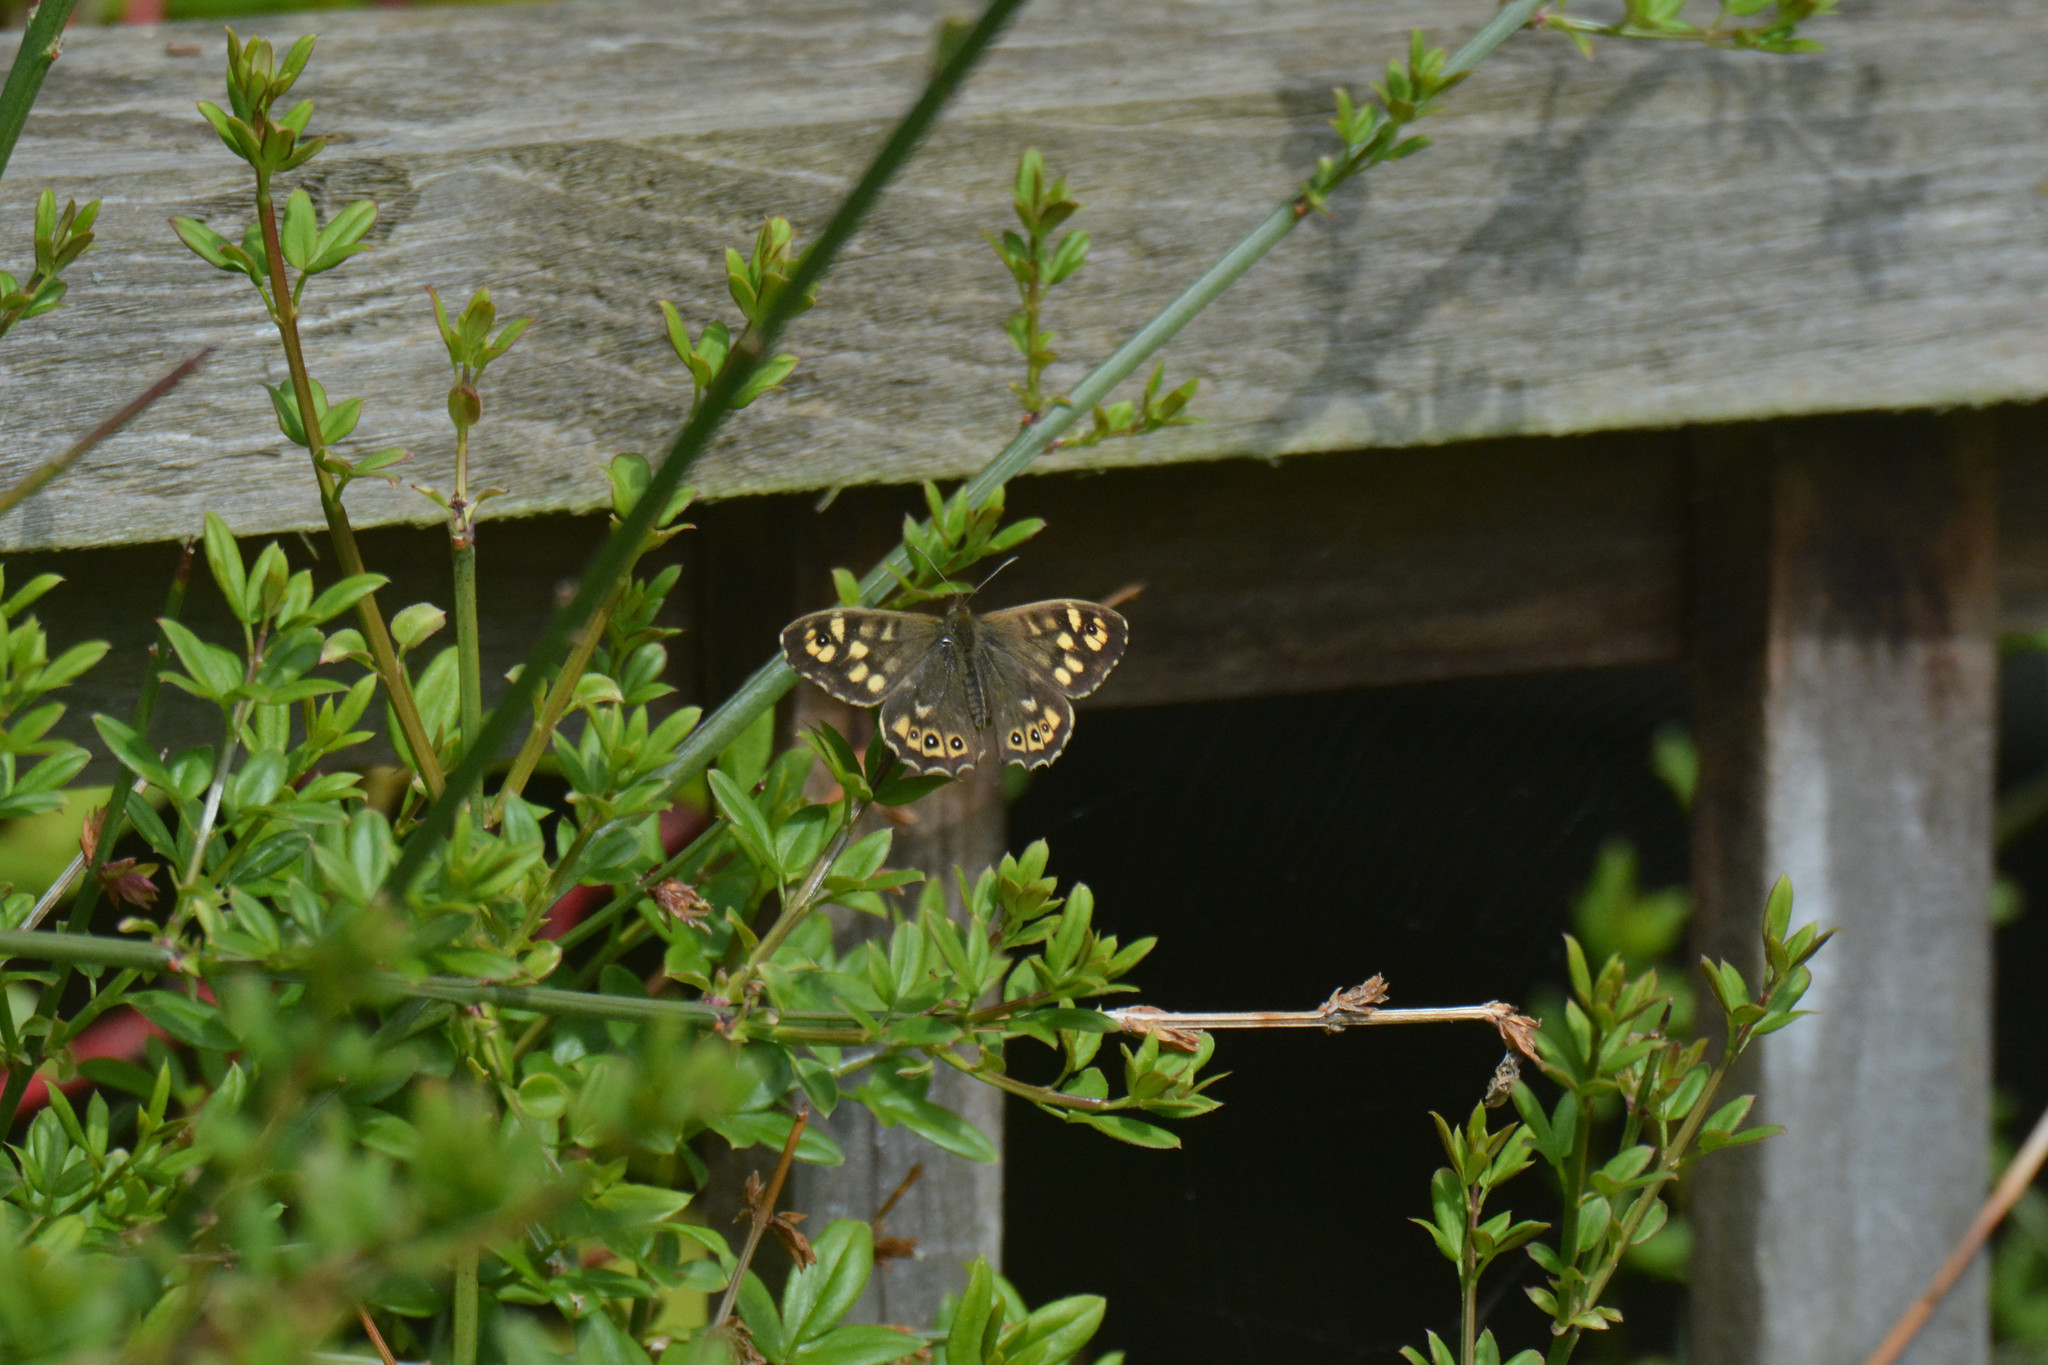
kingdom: Animalia
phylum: Arthropoda
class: Insecta
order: Lepidoptera
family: Nymphalidae
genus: Pararge
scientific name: Pararge aegeria
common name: Speckled wood
